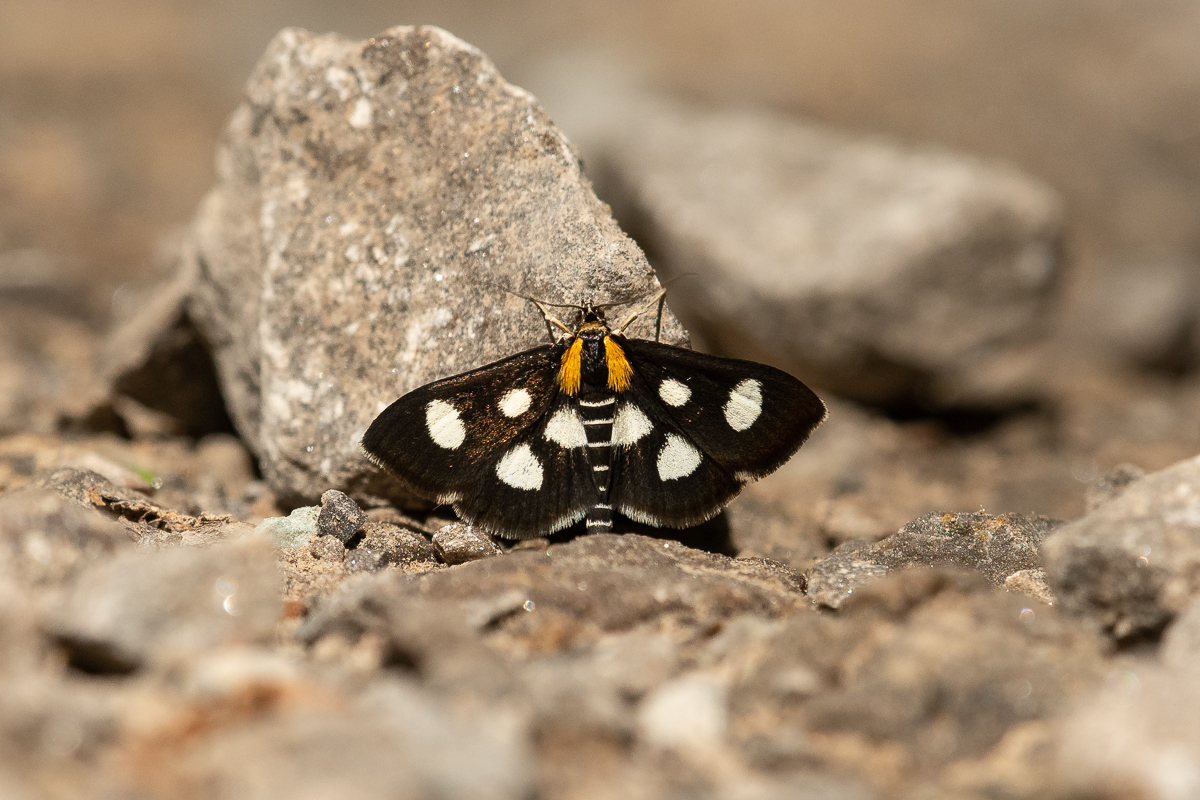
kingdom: Animalia
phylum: Arthropoda
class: Insecta
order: Lepidoptera
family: Crambidae
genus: Anania
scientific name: Anania funebris
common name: White-spotted sable moth
